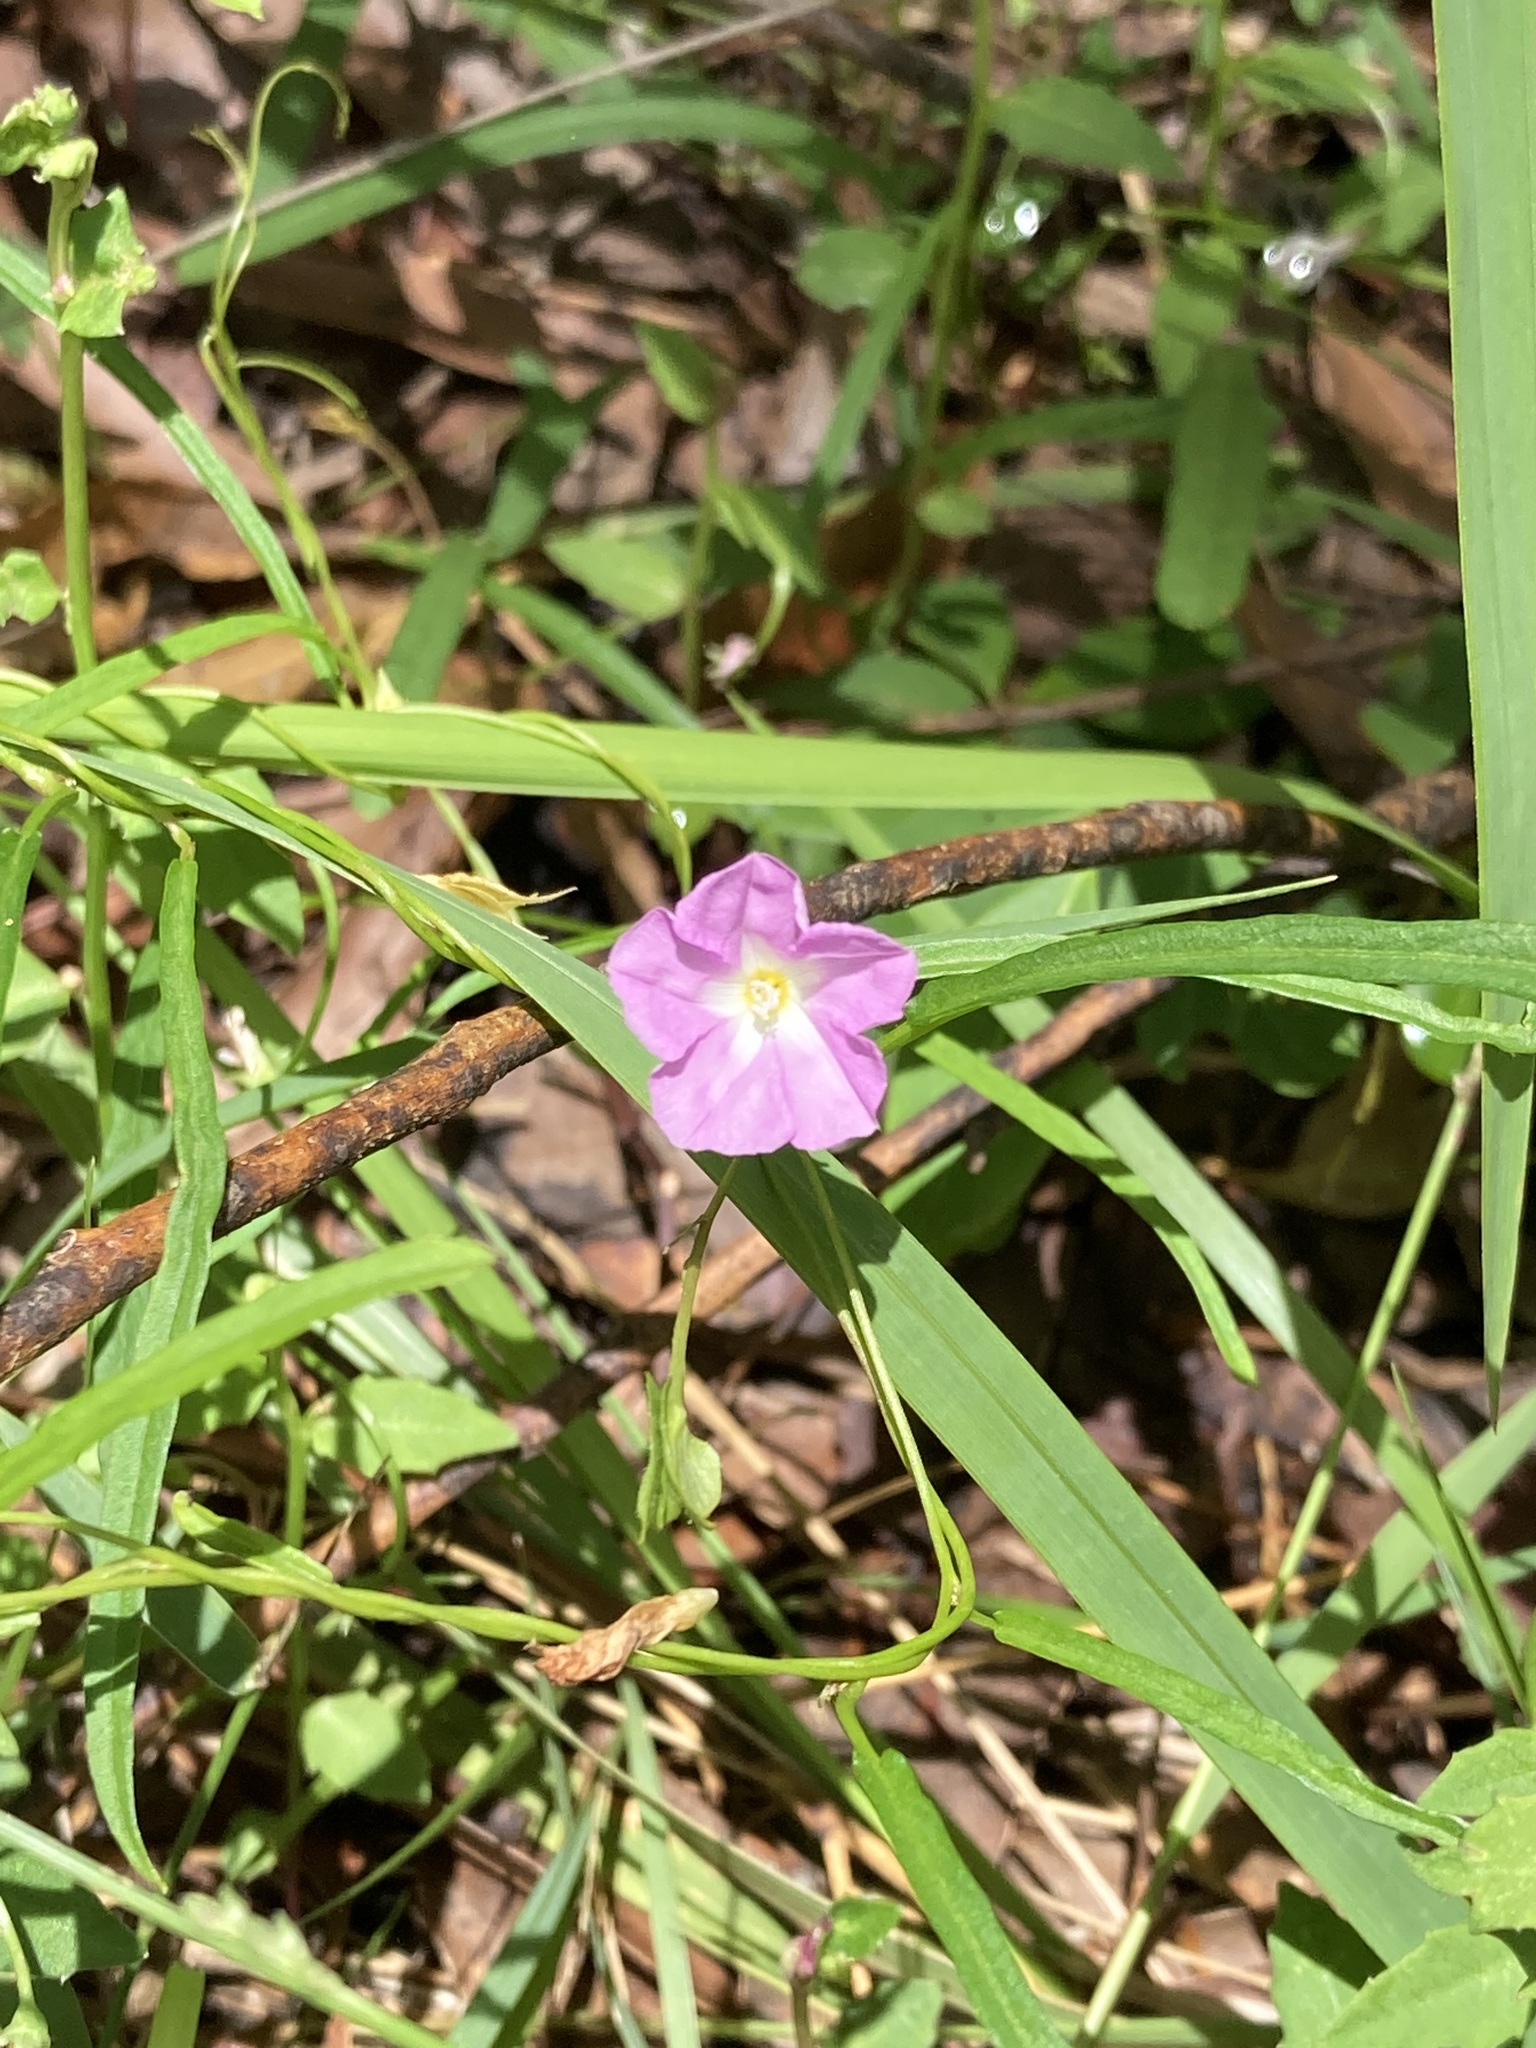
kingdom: Plantae
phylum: Tracheophyta
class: Magnoliopsida
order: Solanales
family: Convolvulaceae
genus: Polymeria
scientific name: Polymeria calycina
